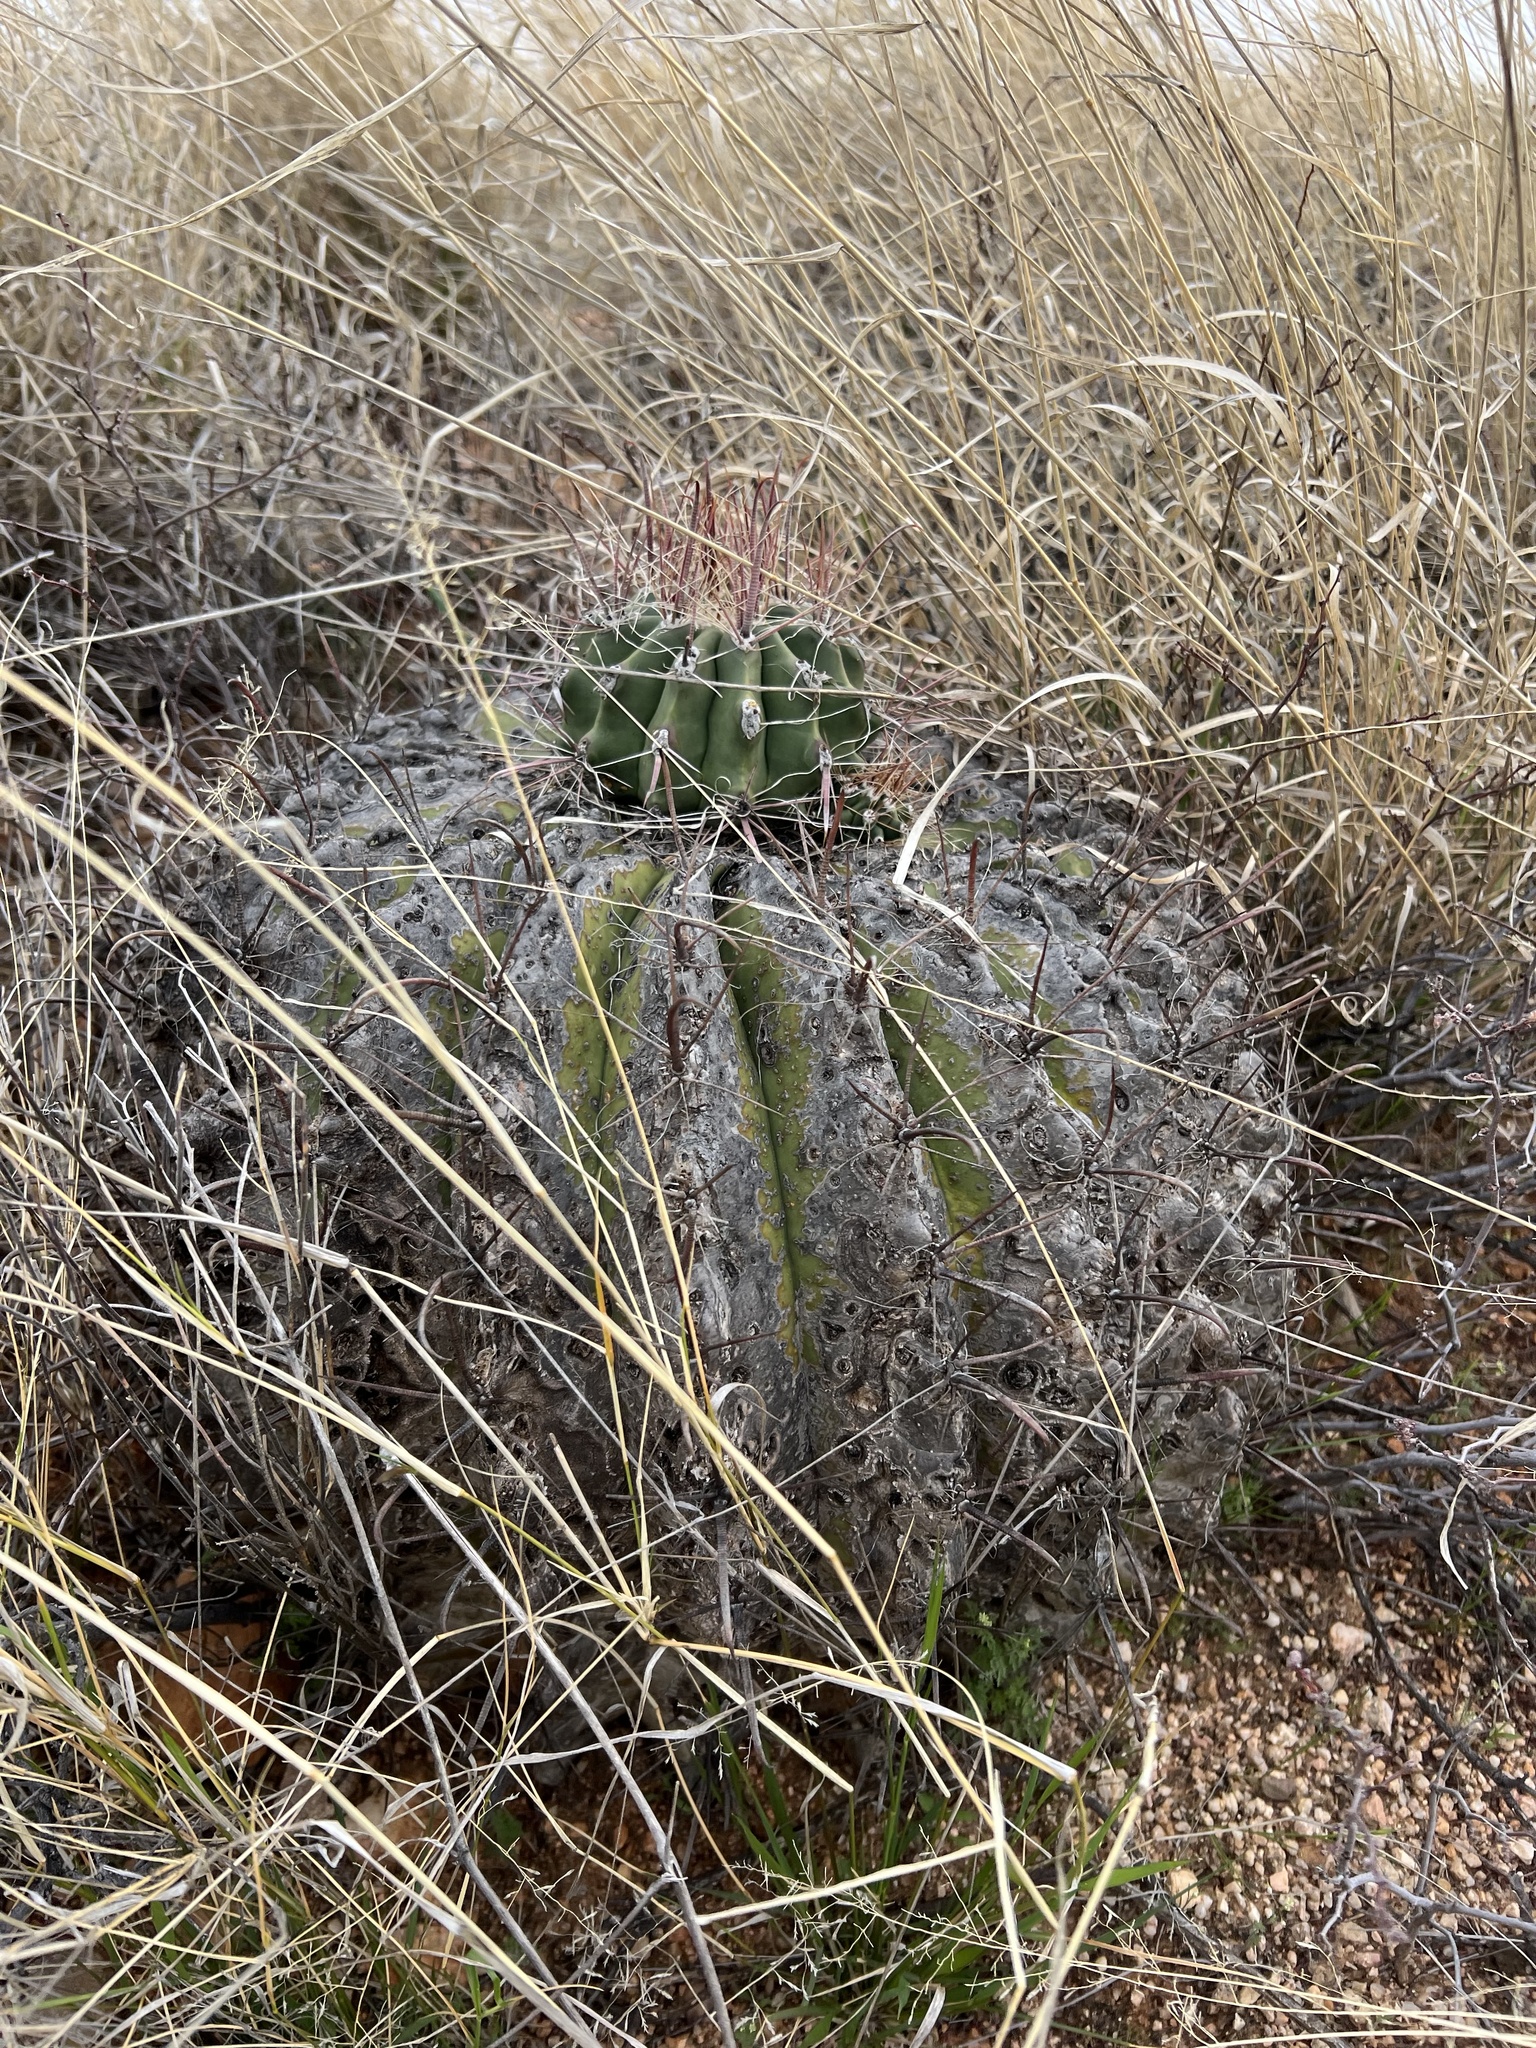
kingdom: Plantae
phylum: Tracheophyta
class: Magnoliopsida
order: Caryophyllales
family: Cactaceae
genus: Ferocactus
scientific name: Ferocactus wislizeni
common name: Candy barrel cactus
